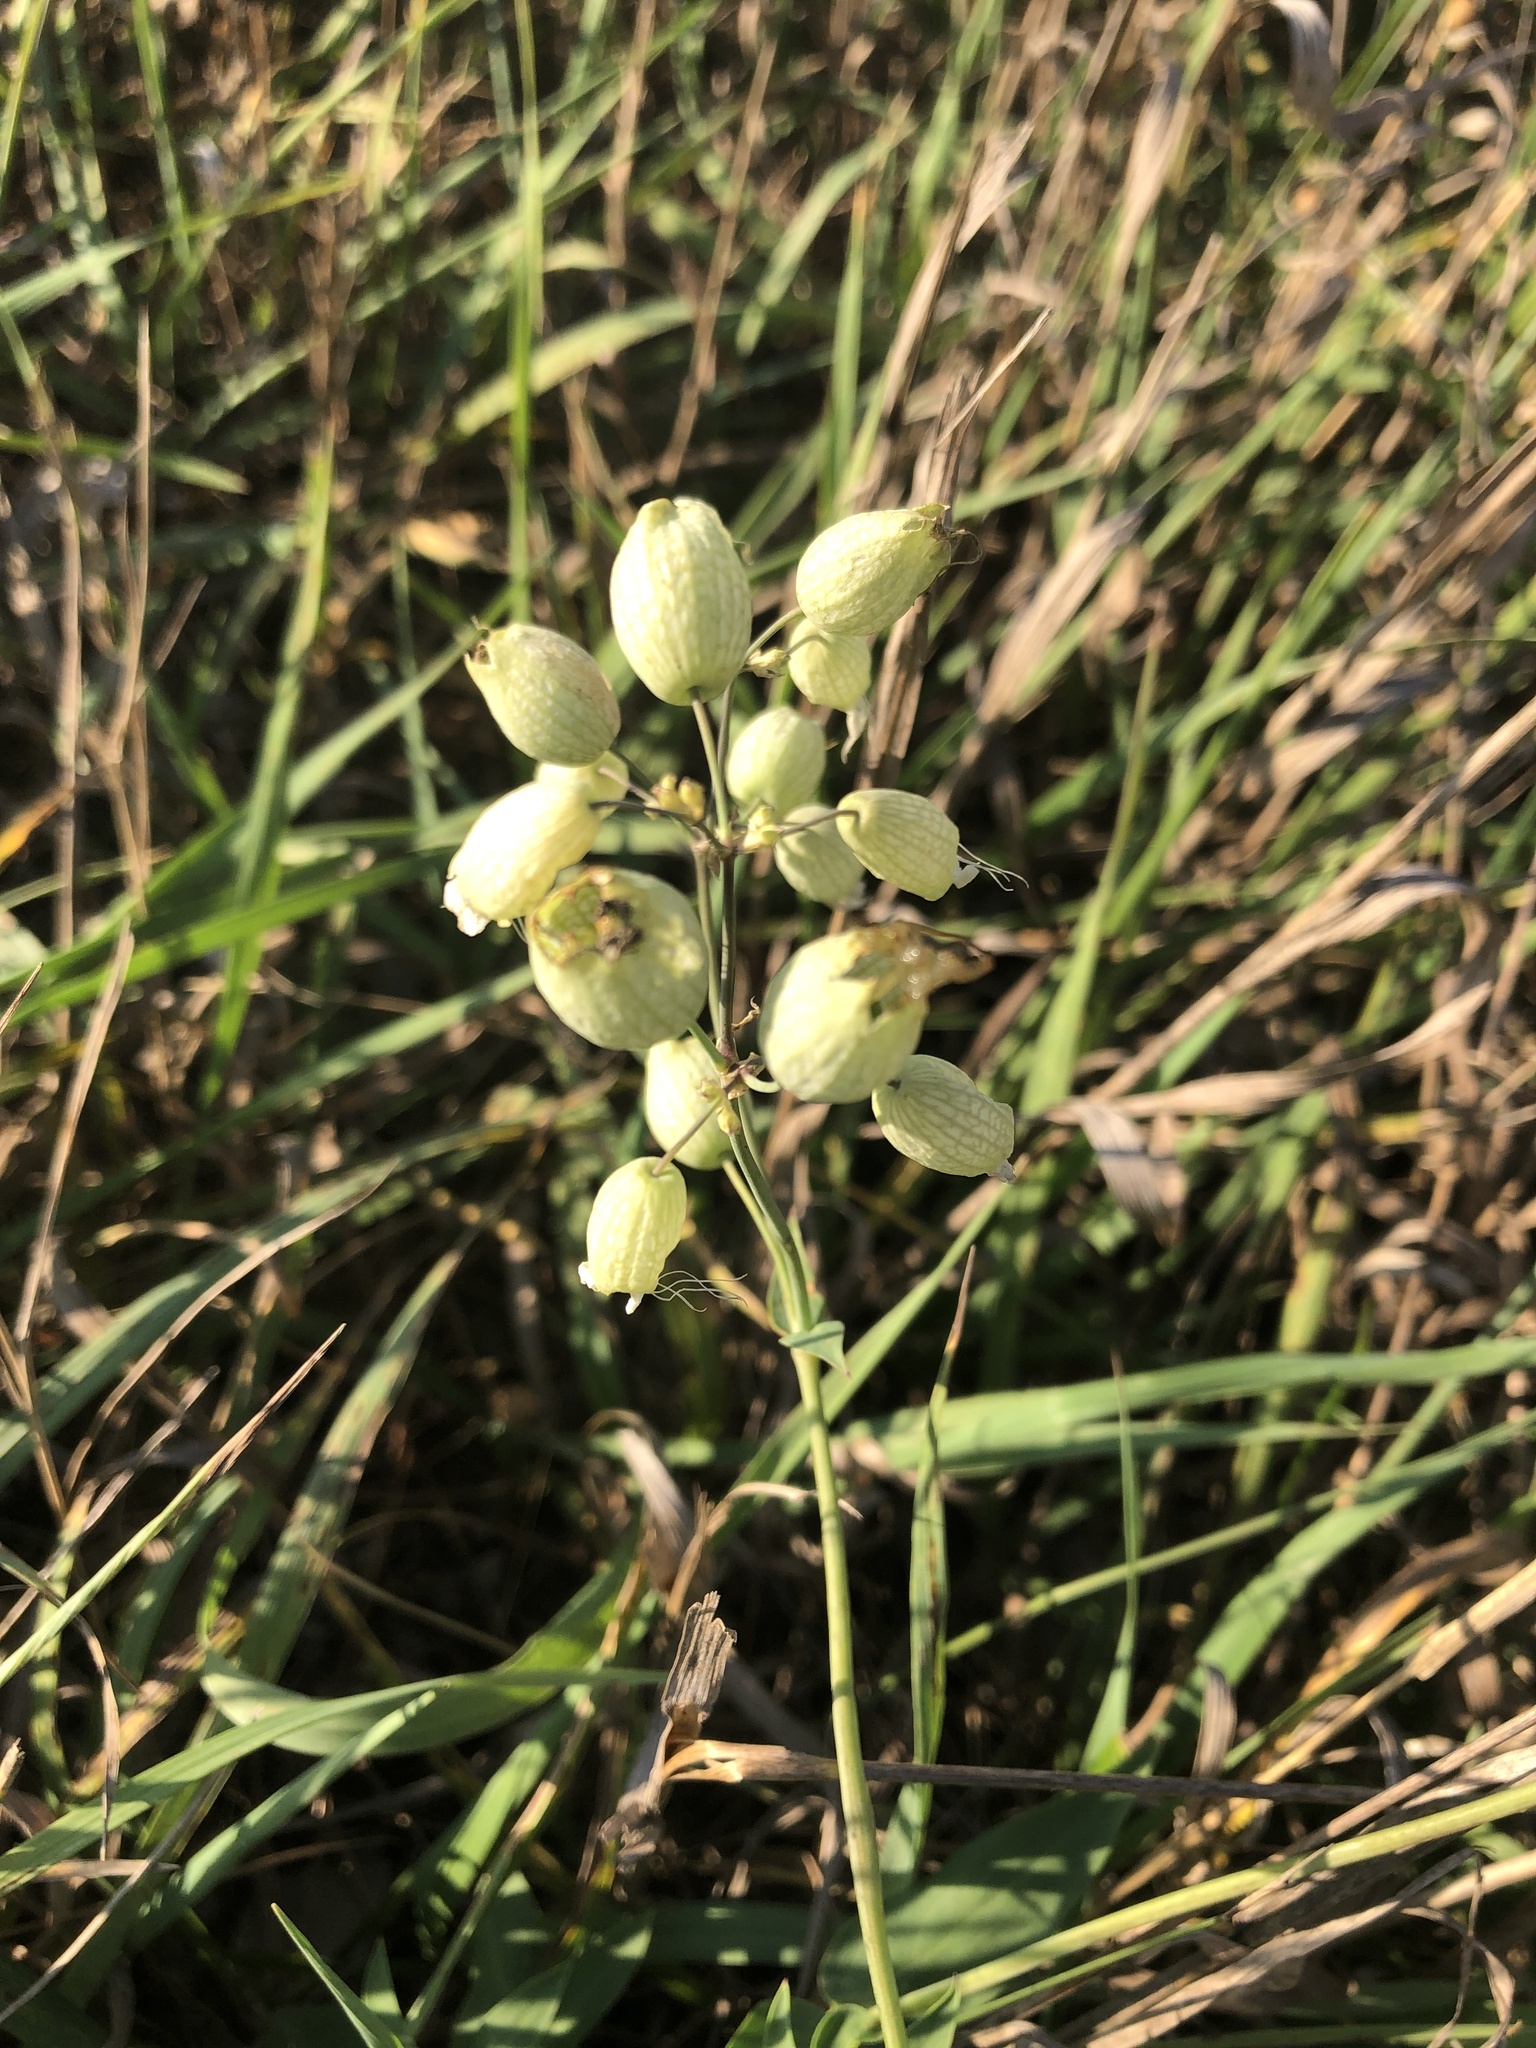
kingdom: Plantae
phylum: Tracheophyta
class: Magnoliopsida
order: Caryophyllales
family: Caryophyllaceae
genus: Silene
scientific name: Silene vulgaris
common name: Bladder campion
